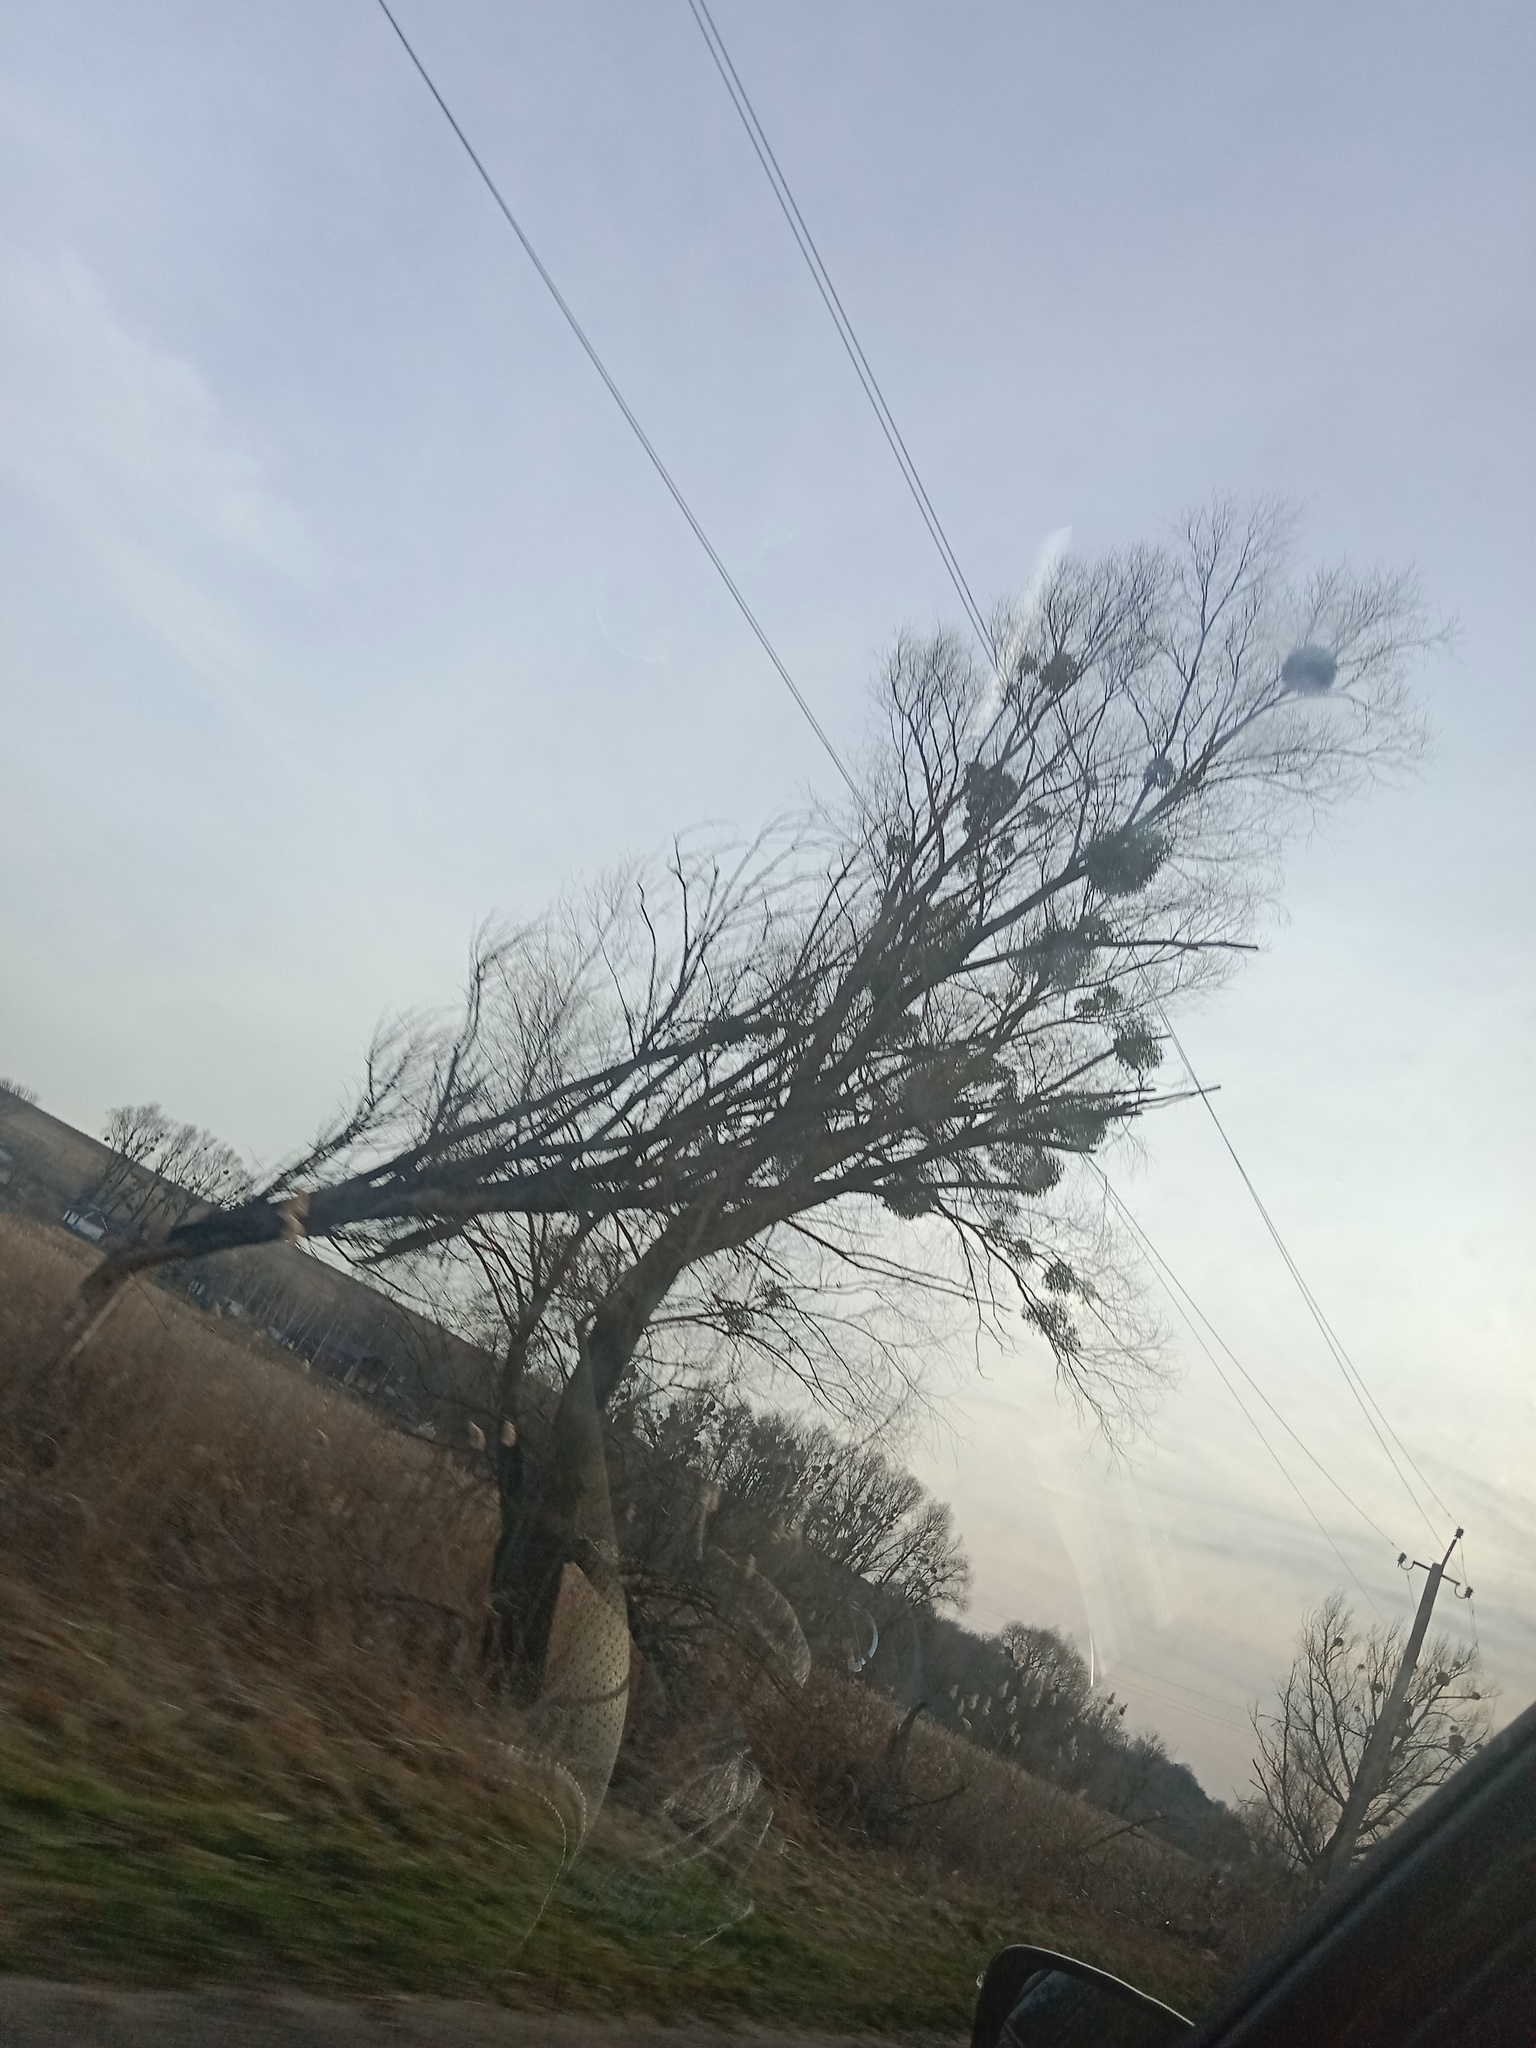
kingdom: Plantae
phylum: Tracheophyta
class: Magnoliopsida
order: Santalales
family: Viscaceae
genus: Viscum
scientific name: Viscum album
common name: Mistletoe
